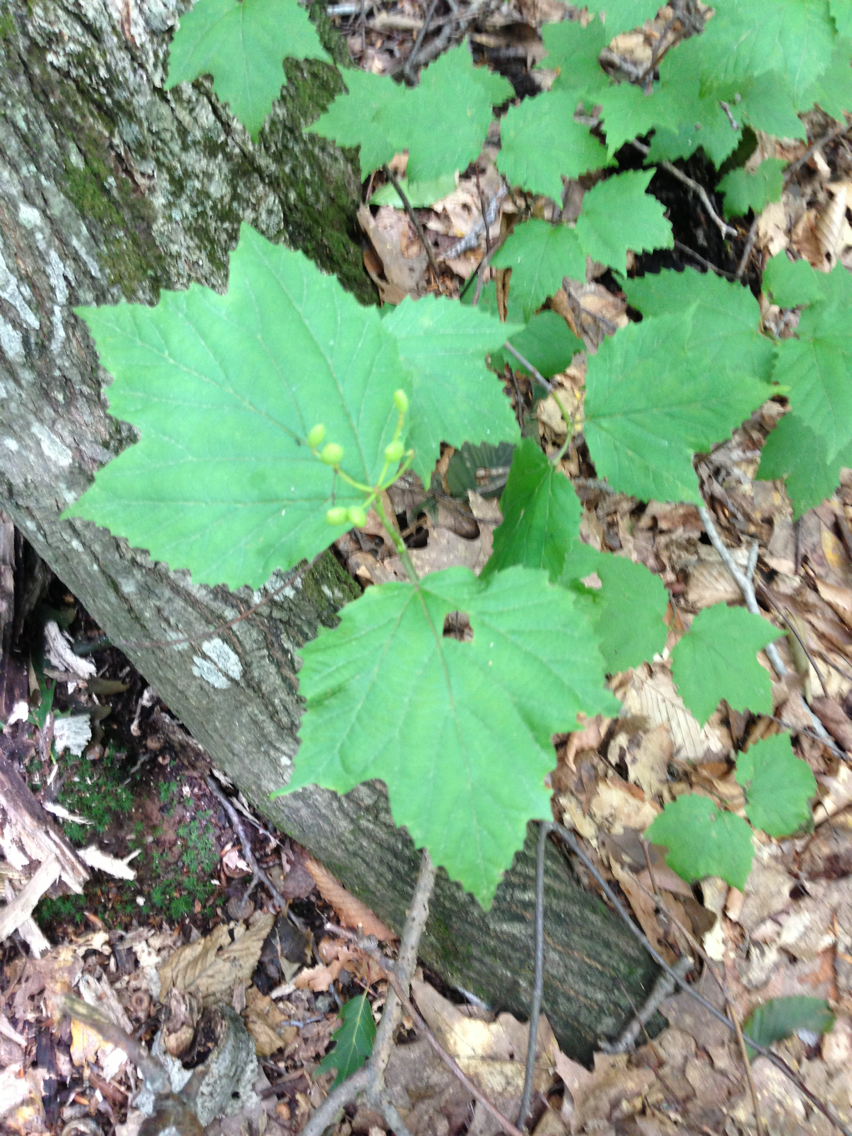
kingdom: Plantae
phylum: Tracheophyta
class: Magnoliopsida
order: Dipsacales
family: Viburnaceae
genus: Viburnum
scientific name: Viburnum acerifolium
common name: Dockmackie
